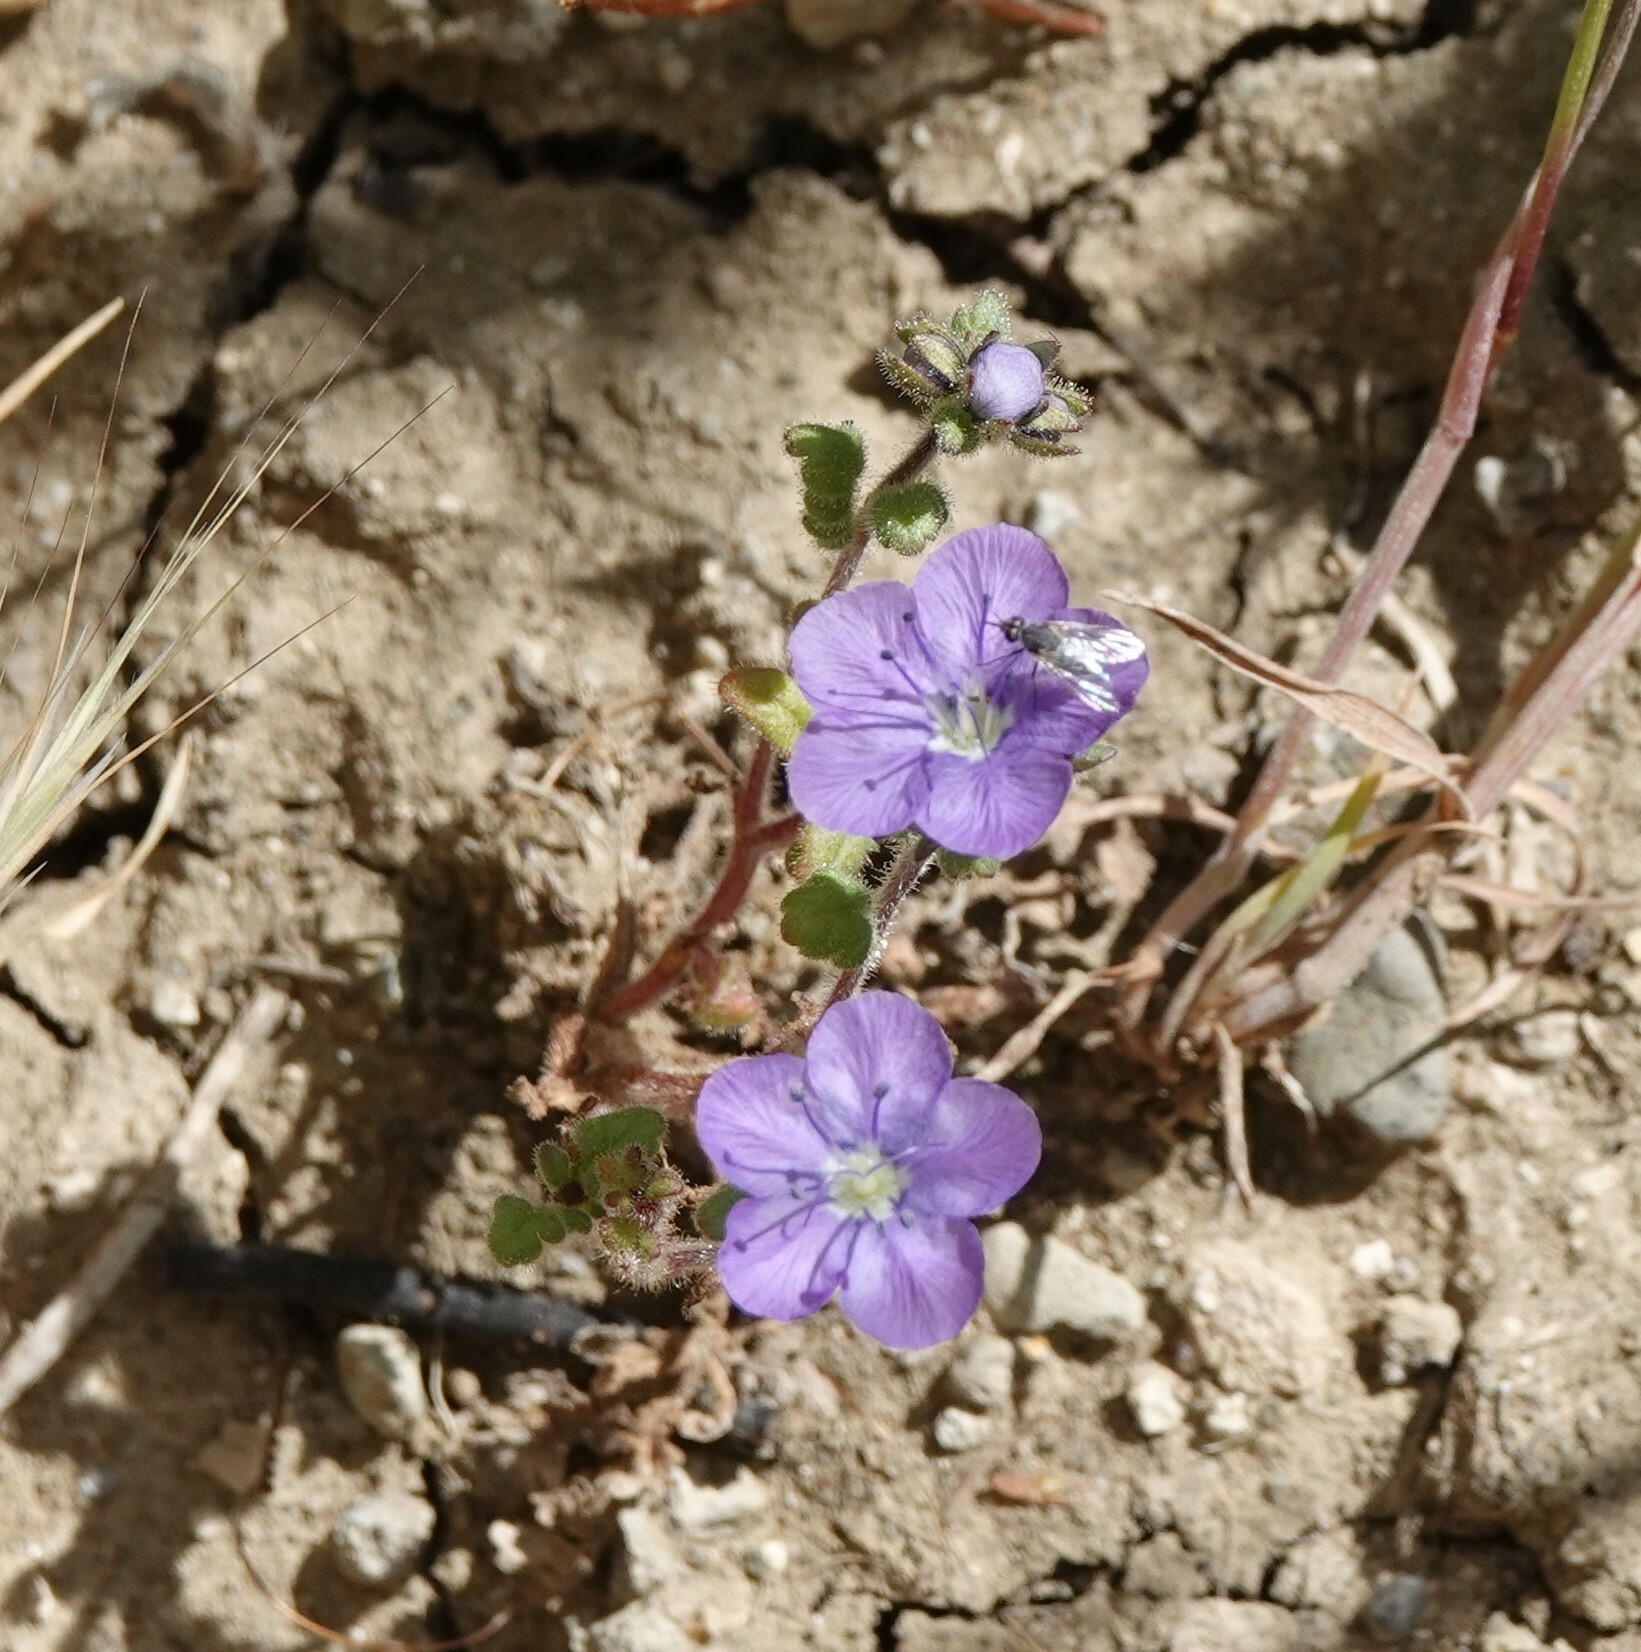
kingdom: Plantae
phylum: Tracheophyta
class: Magnoliopsida
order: Boraginales
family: Hydrophyllaceae
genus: Phacelia
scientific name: Phacelia ciliata
